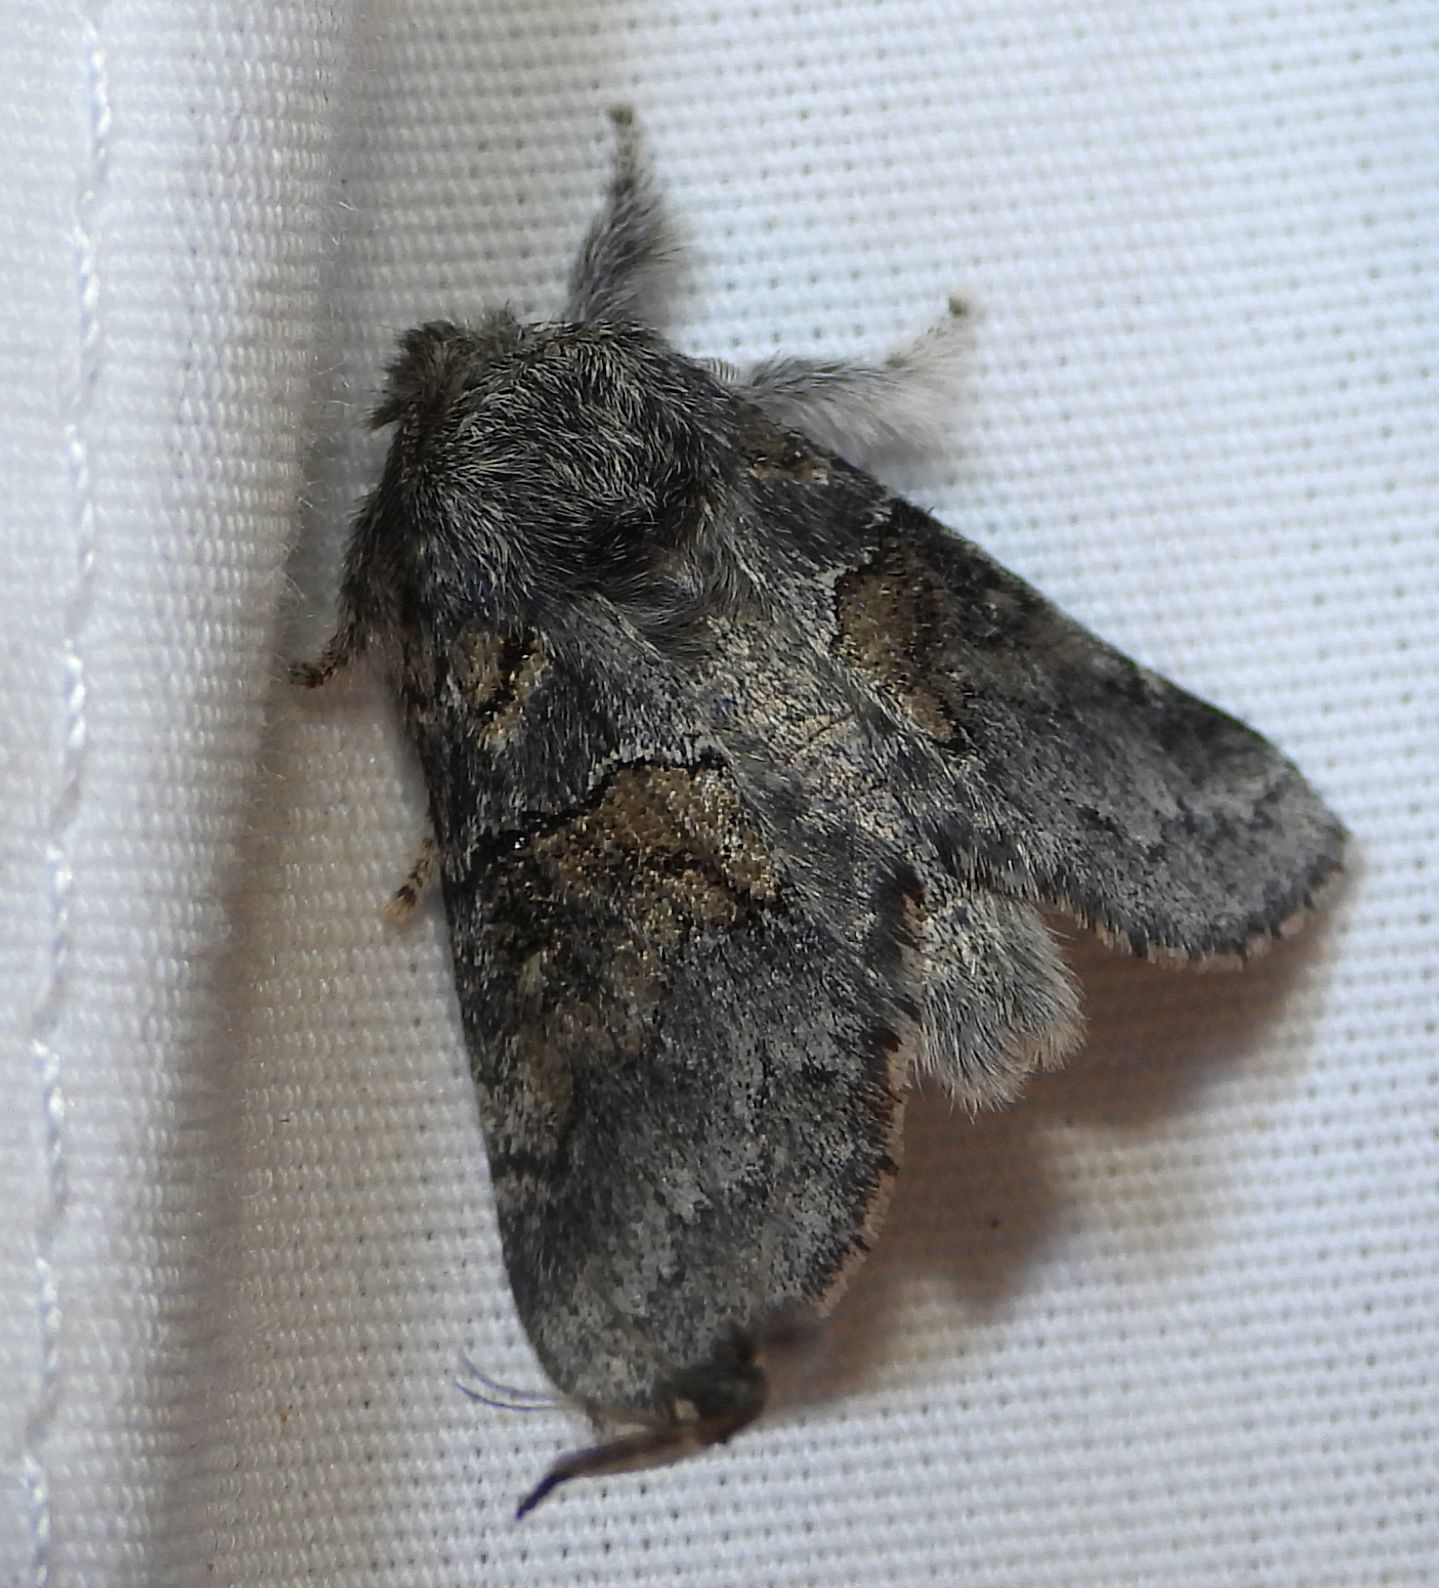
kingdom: Animalia
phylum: Arthropoda
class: Insecta
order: Lepidoptera
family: Notodontidae
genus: Gluphisia
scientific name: Gluphisia septentrionis
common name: Common gluphisia
